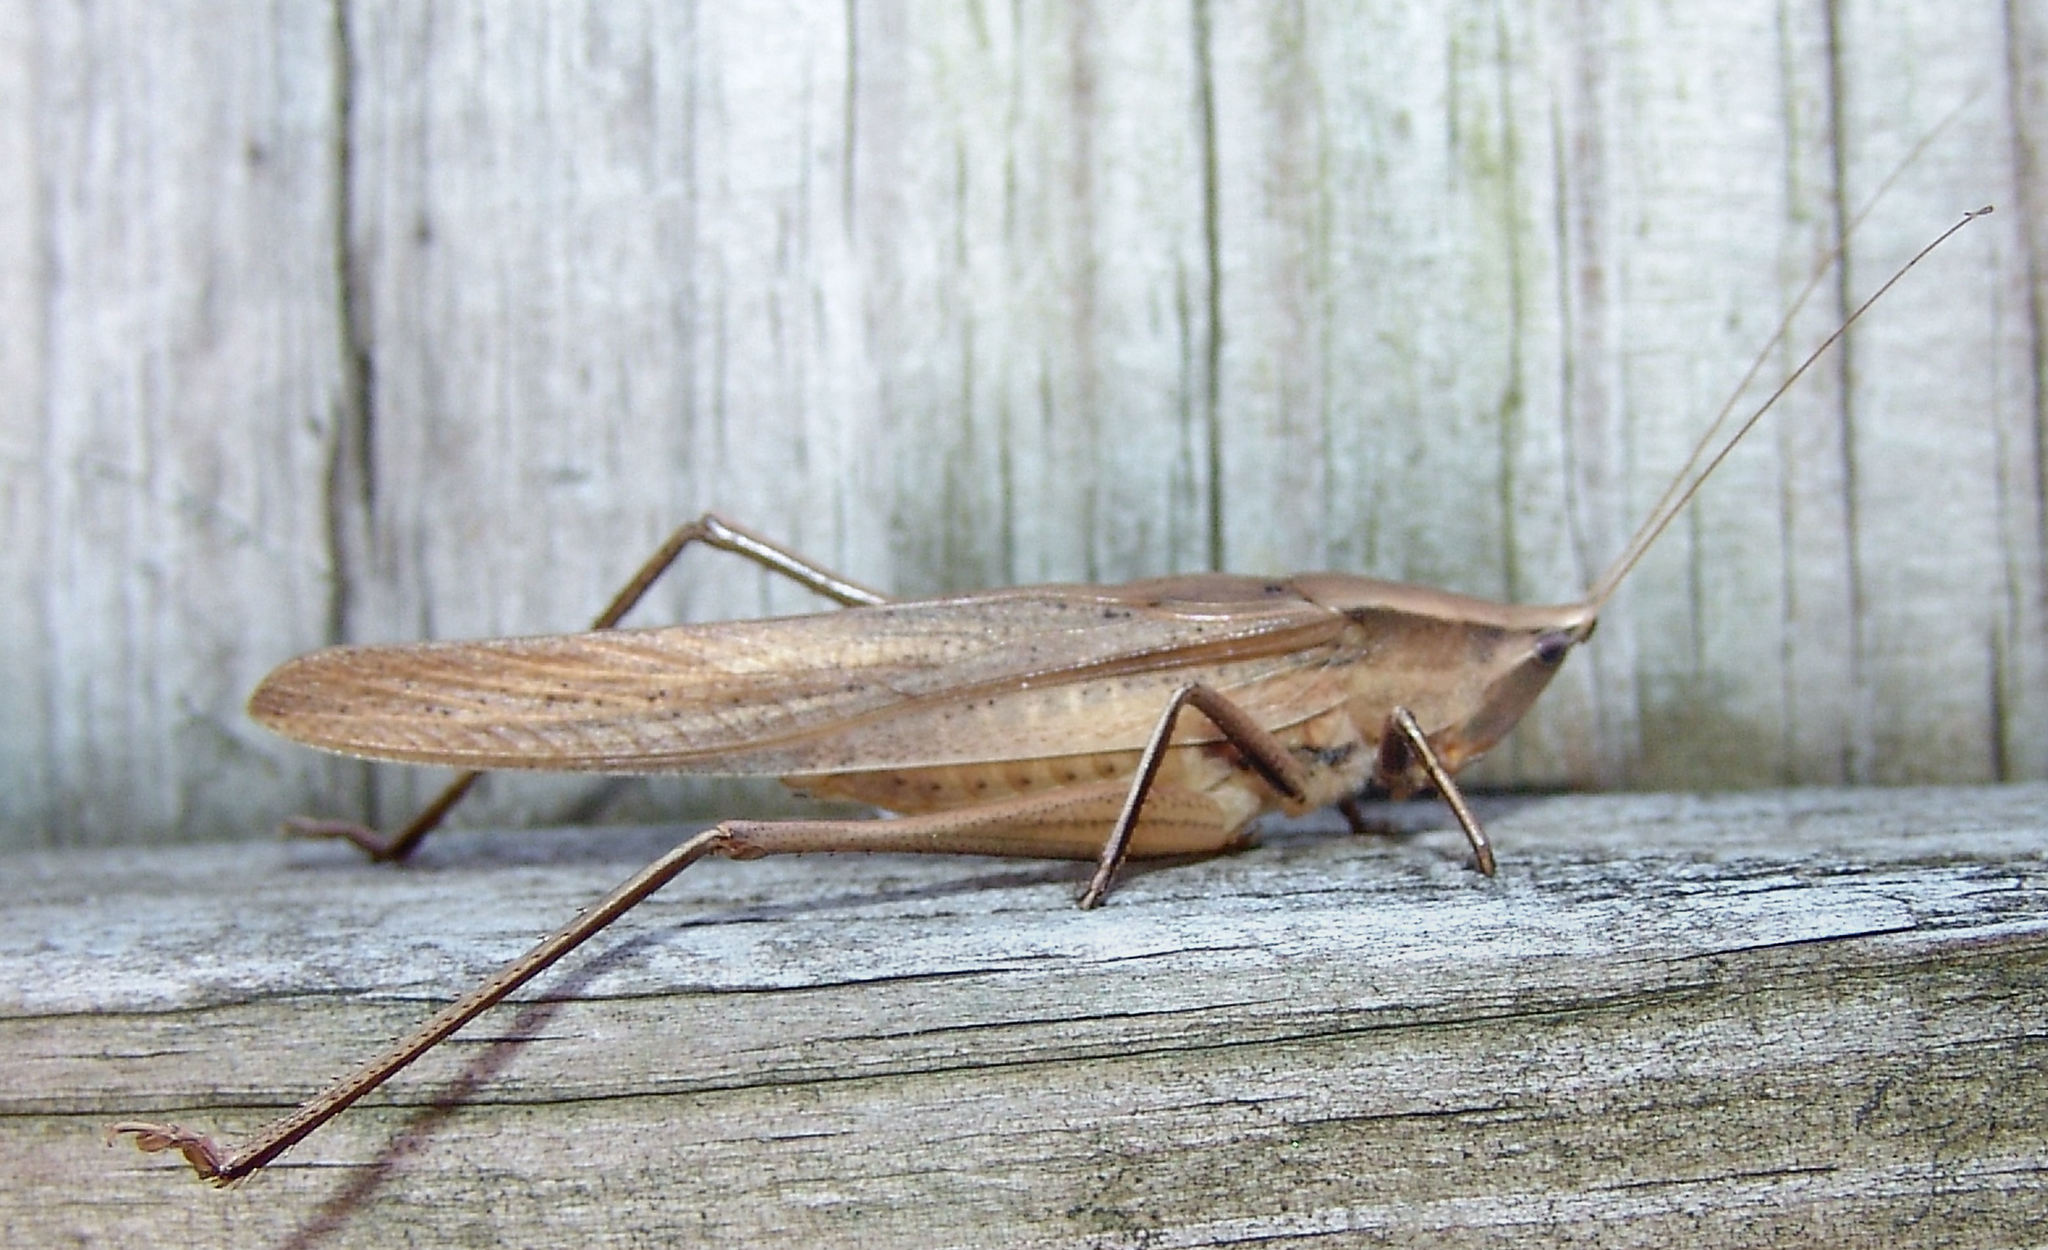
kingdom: Animalia
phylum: Arthropoda
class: Insecta
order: Orthoptera
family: Tettigoniidae
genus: Neoconocephalus
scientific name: Neoconocephalus triops
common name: Broad-tipped conehead
